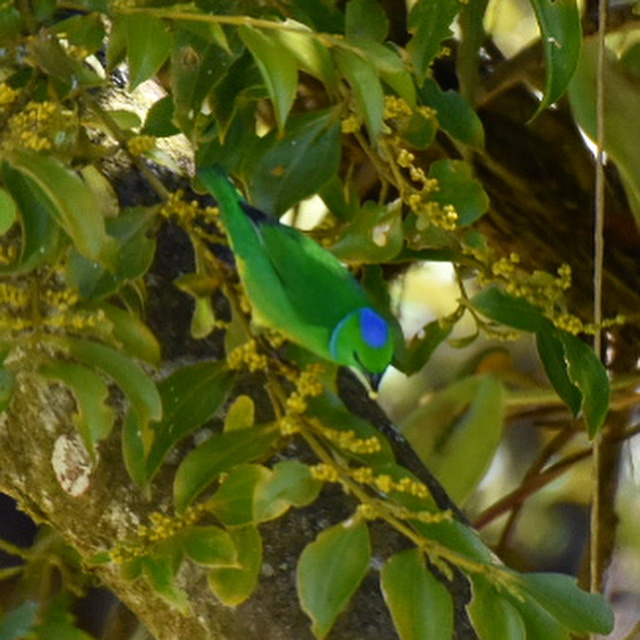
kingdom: Animalia
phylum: Chordata
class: Aves
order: Passeriformes
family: Fringillidae
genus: Chlorophonia
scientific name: Chlorophonia callophrys
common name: Golden-browed chlorophonia
